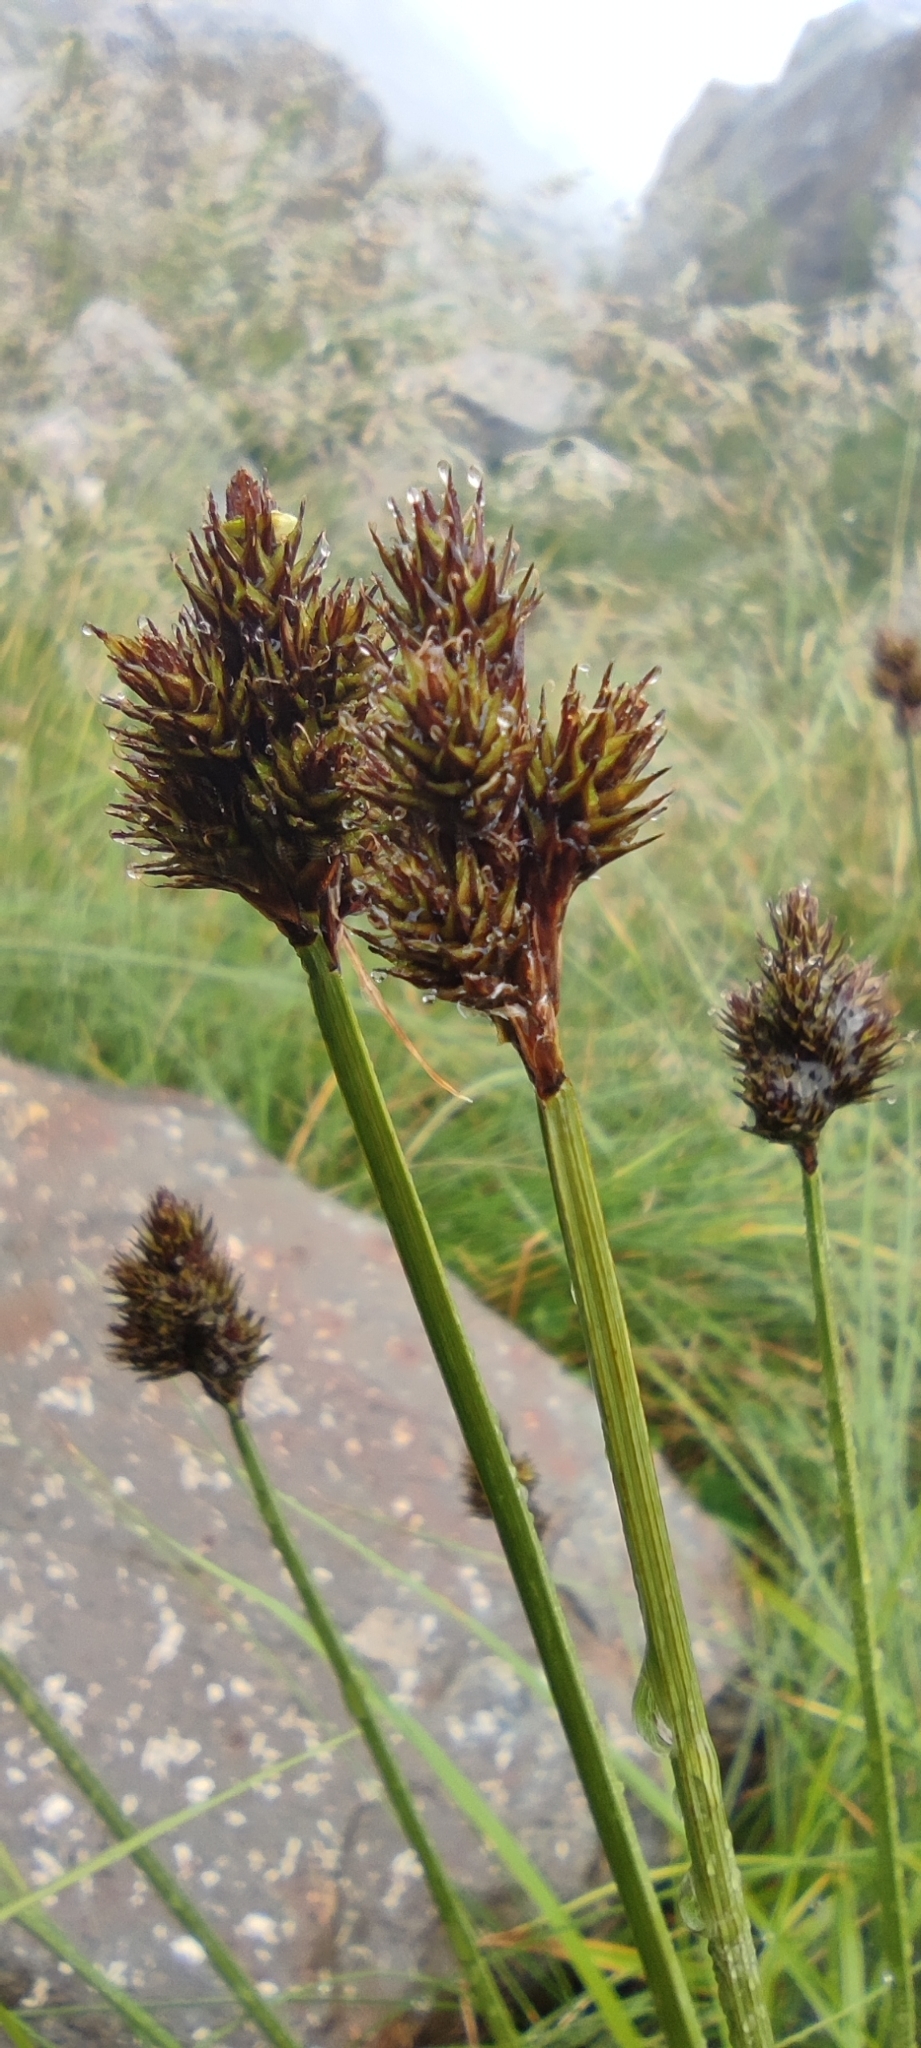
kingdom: Plantae
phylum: Tracheophyta
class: Liliopsida
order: Poales
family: Cyperaceae
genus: Carex
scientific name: Carex leporina
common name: Oval sedge
